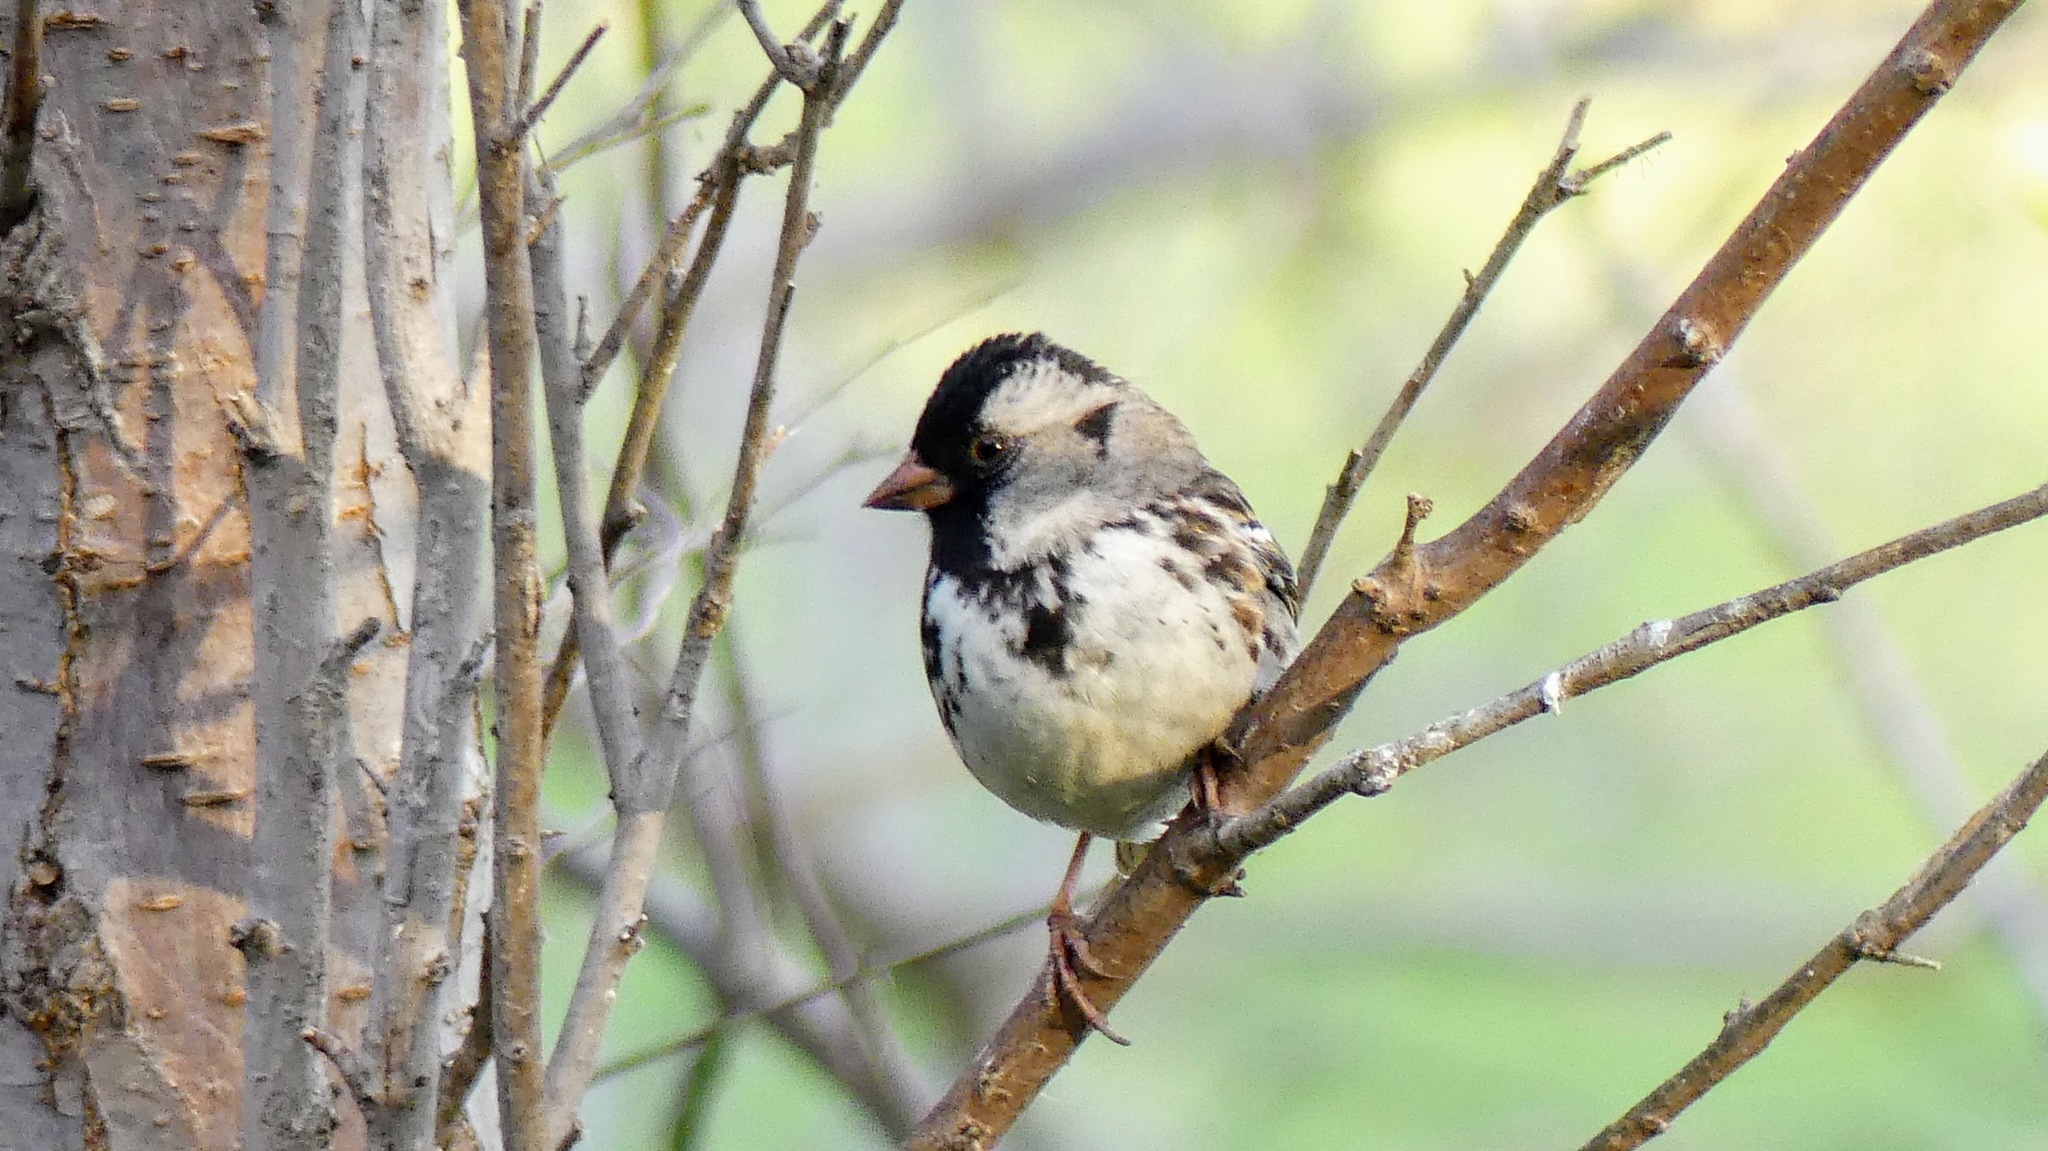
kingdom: Animalia
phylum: Chordata
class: Aves
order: Passeriformes
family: Passerellidae
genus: Zonotrichia
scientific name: Zonotrichia querula
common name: Harris's sparrow
